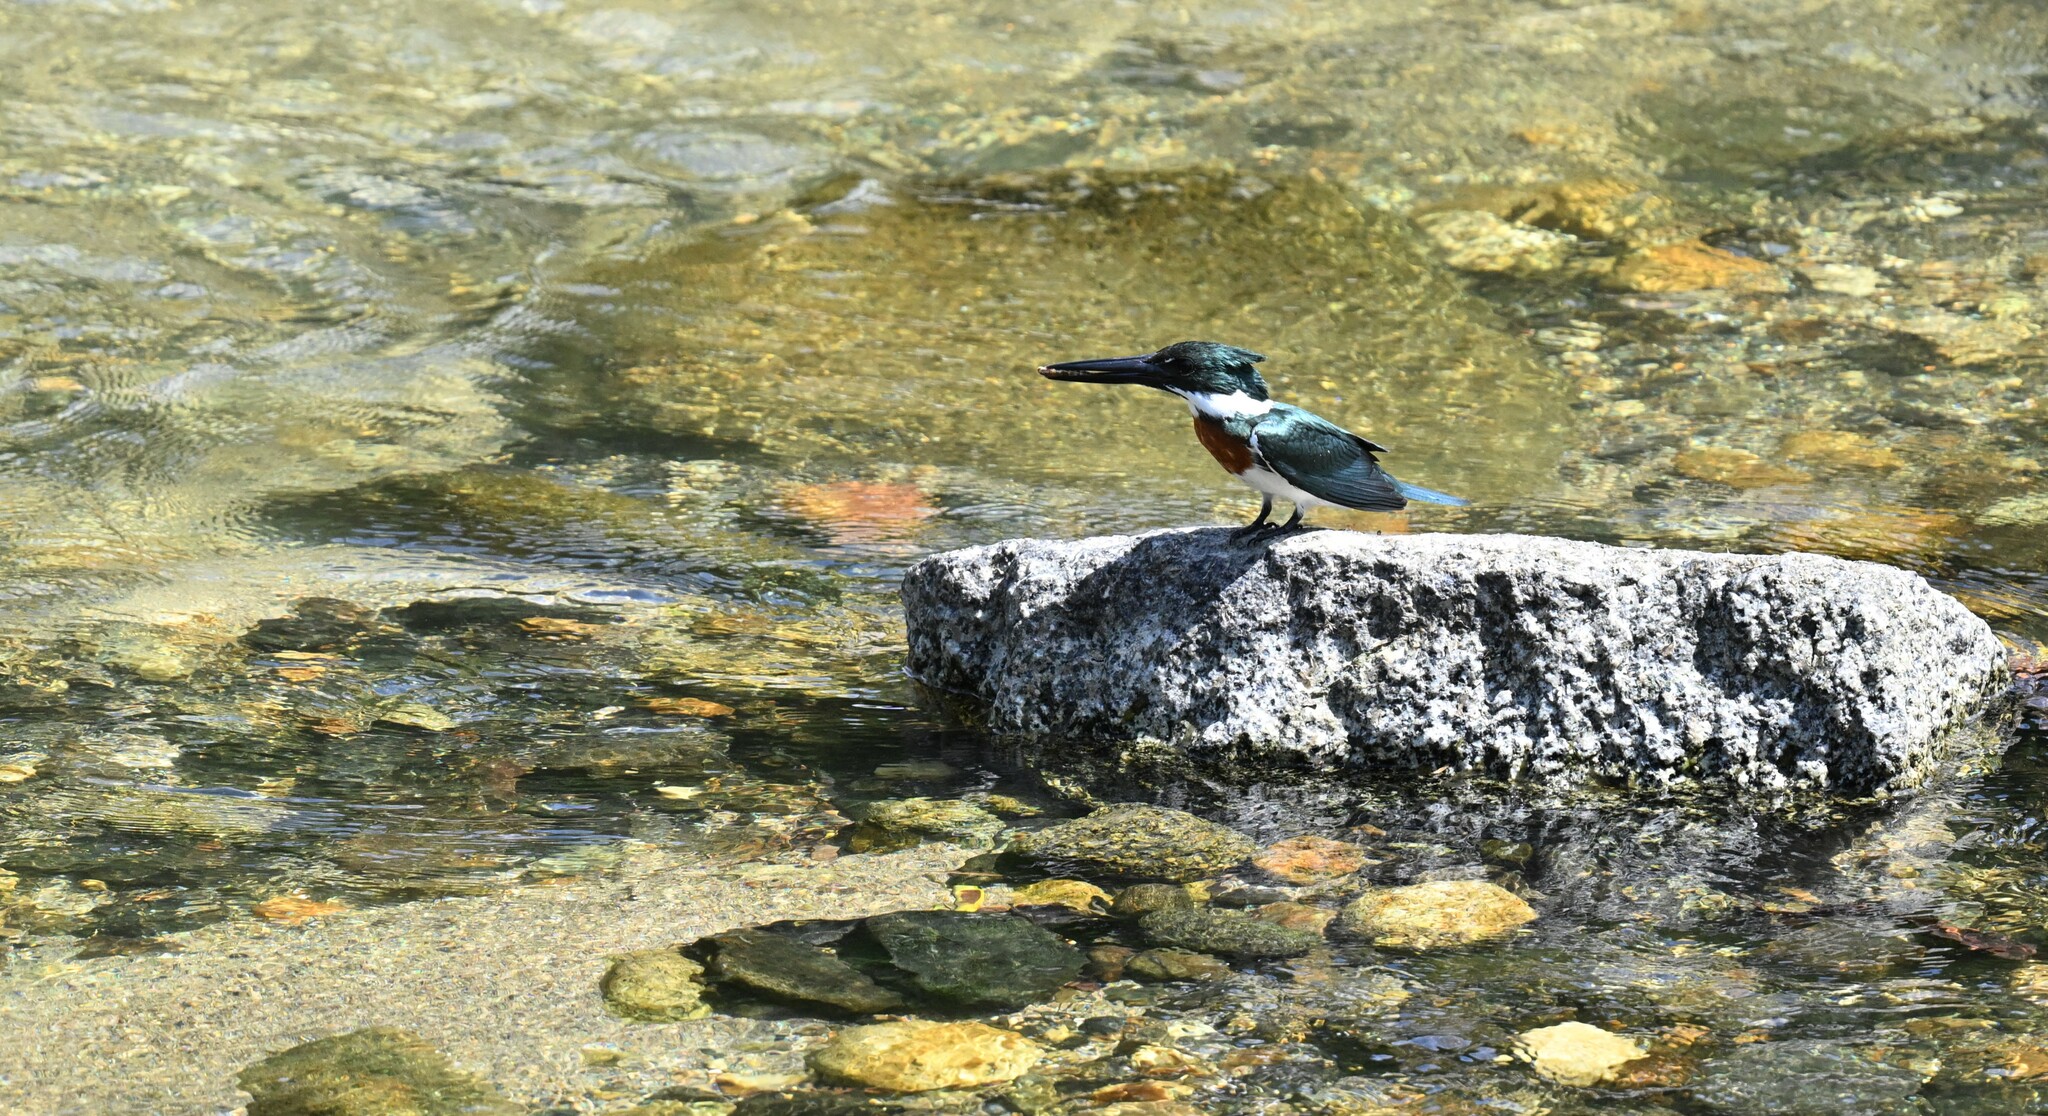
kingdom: Animalia
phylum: Chordata
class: Aves
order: Coraciiformes
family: Alcedinidae
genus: Chloroceryle
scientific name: Chloroceryle amazona
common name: Amazon kingfisher
